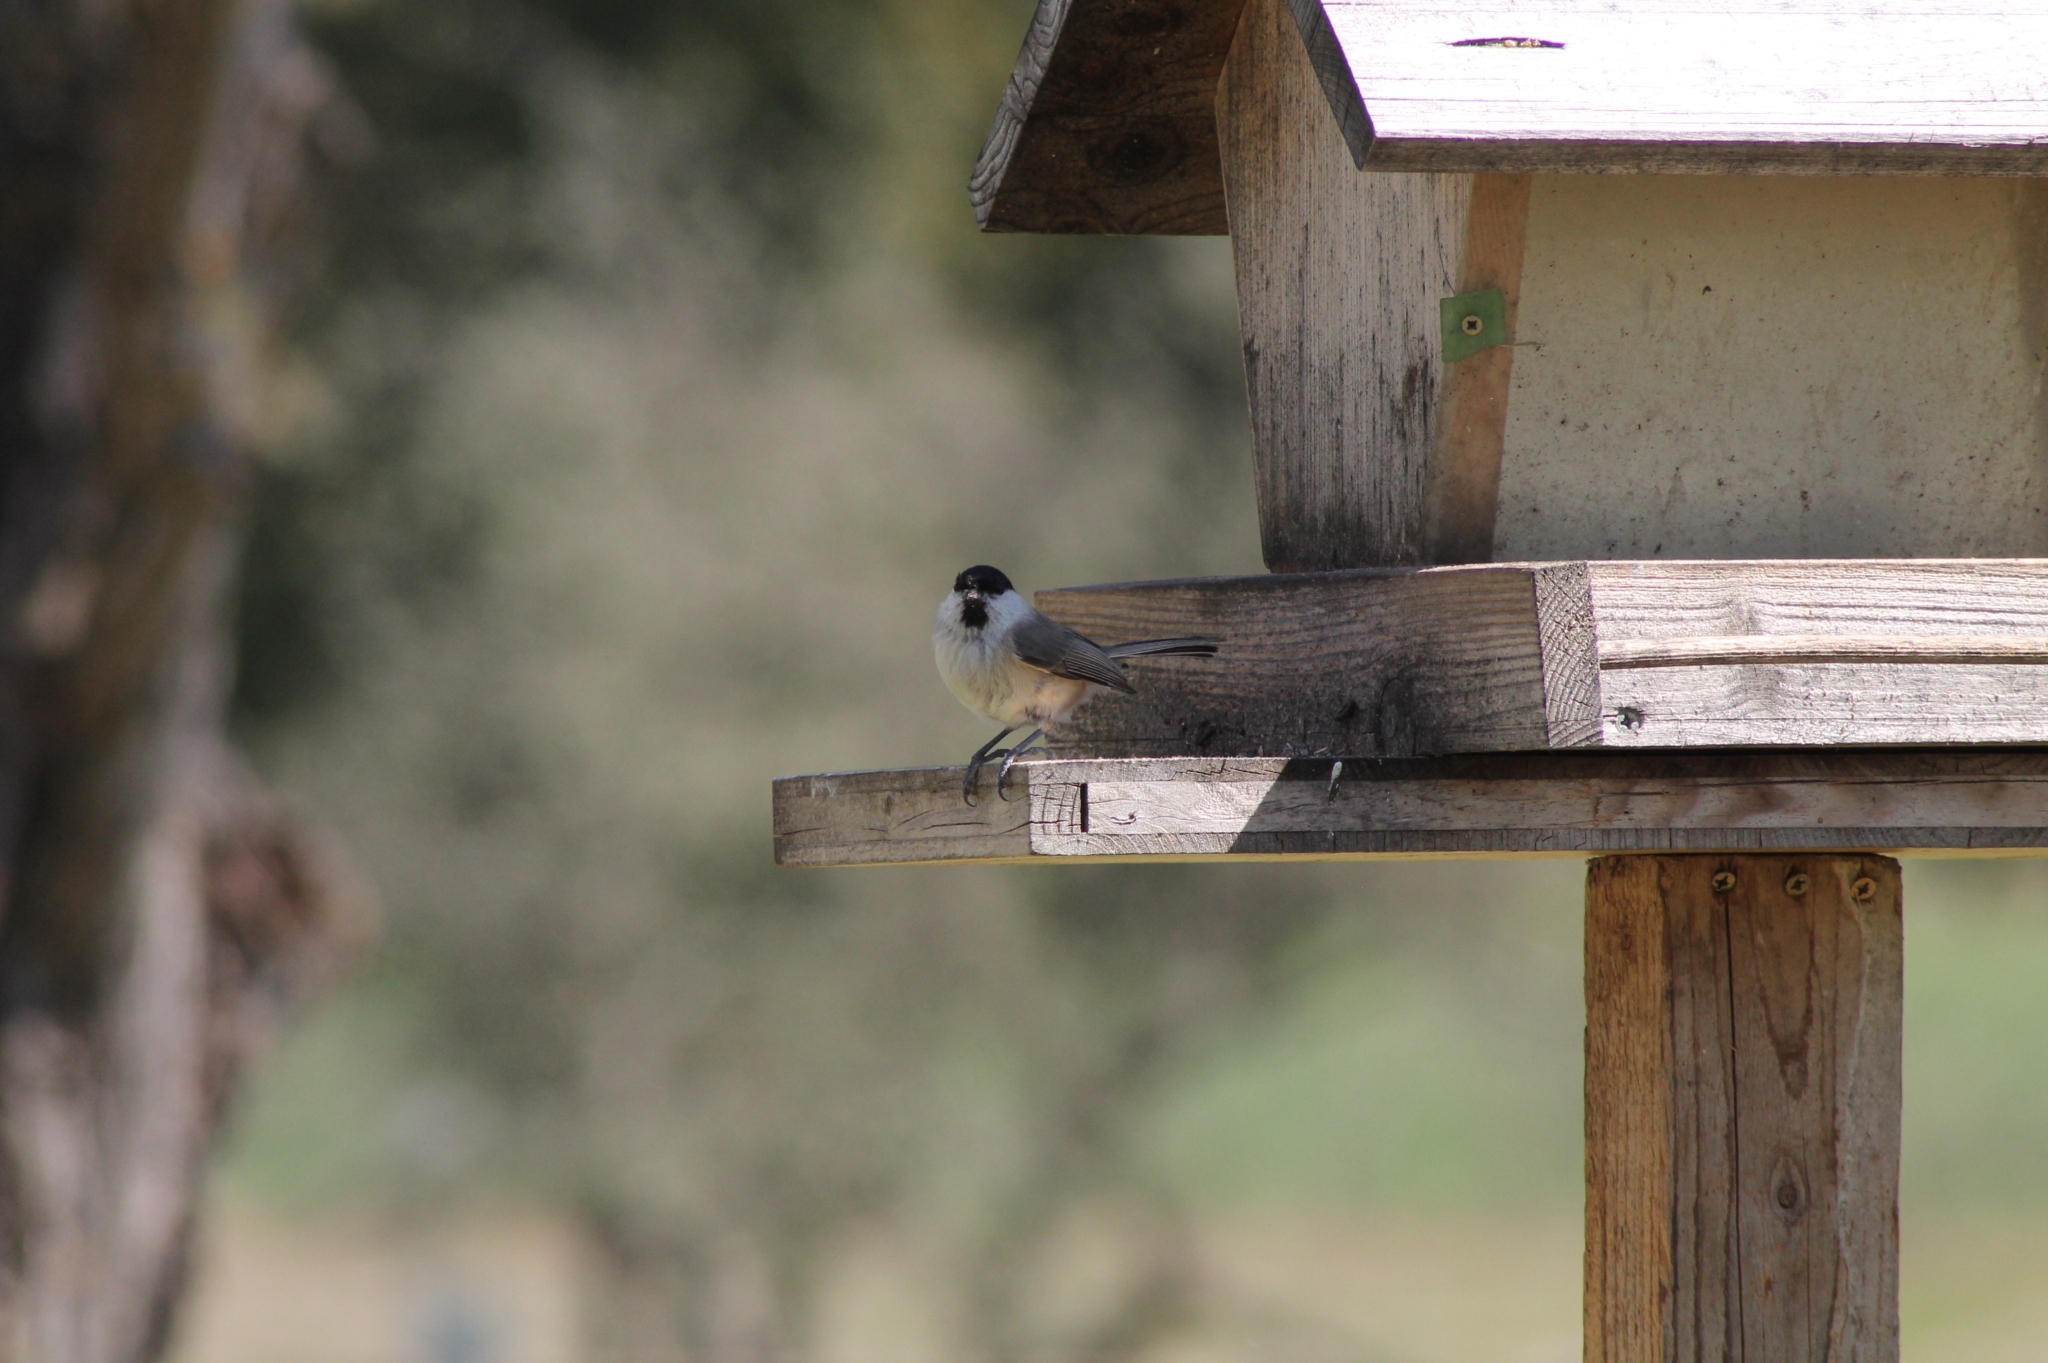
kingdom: Animalia
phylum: Chordata
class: Aves
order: Passeriformes
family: Paridae
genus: Poecile
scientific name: Poecile palustris
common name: Marsh tit
